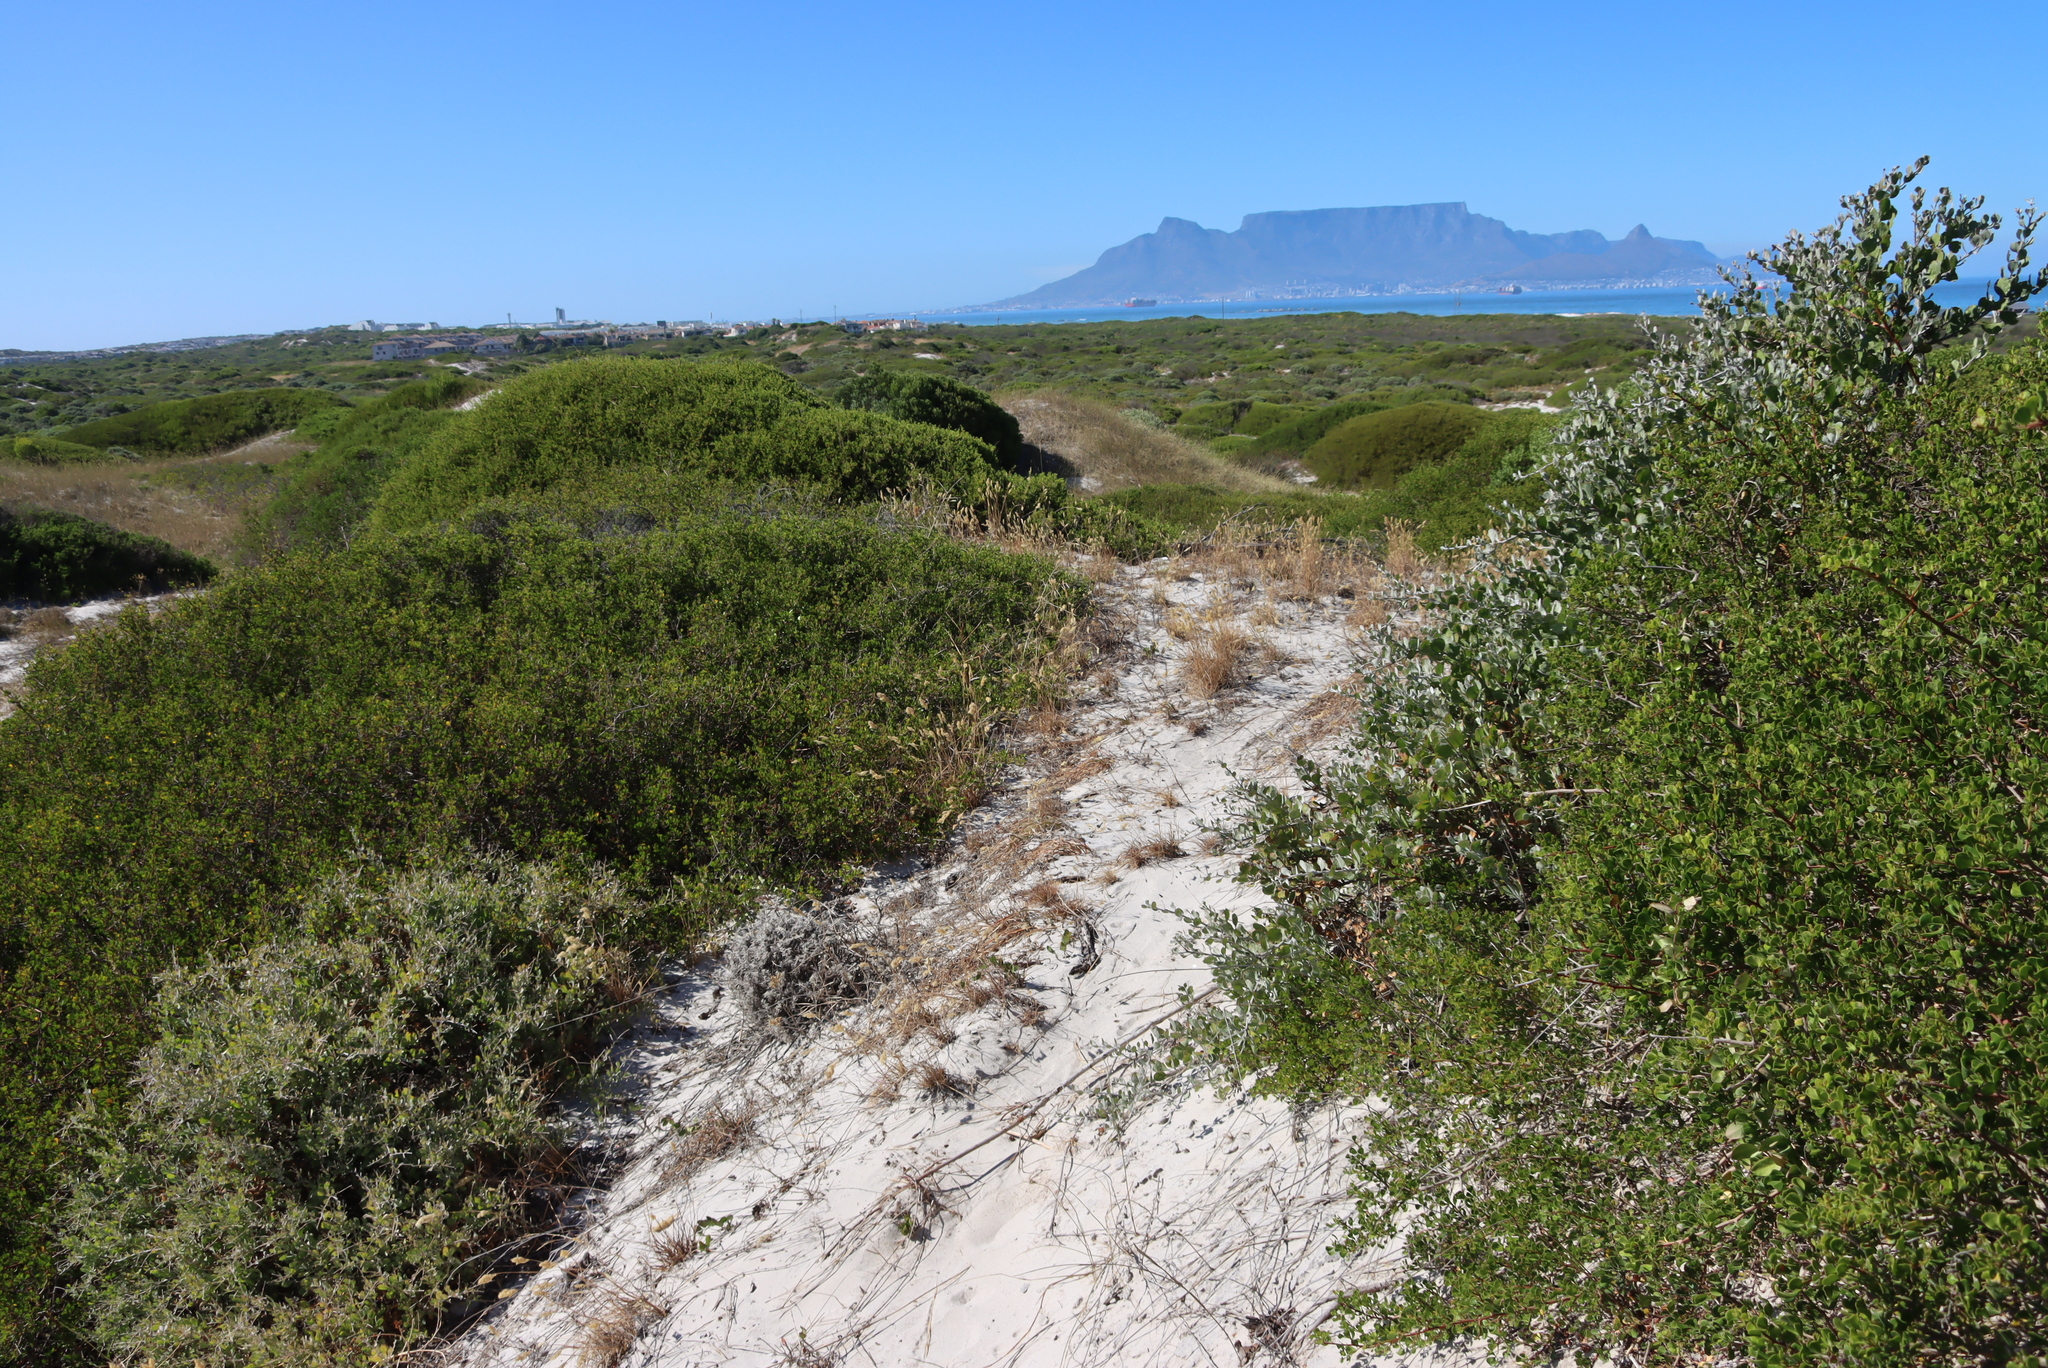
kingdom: Plantae
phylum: Tracheophyta
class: Magnoliopsida
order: Asterales
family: Asteraceae
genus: Osteospermum
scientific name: Osteospermum incanum
